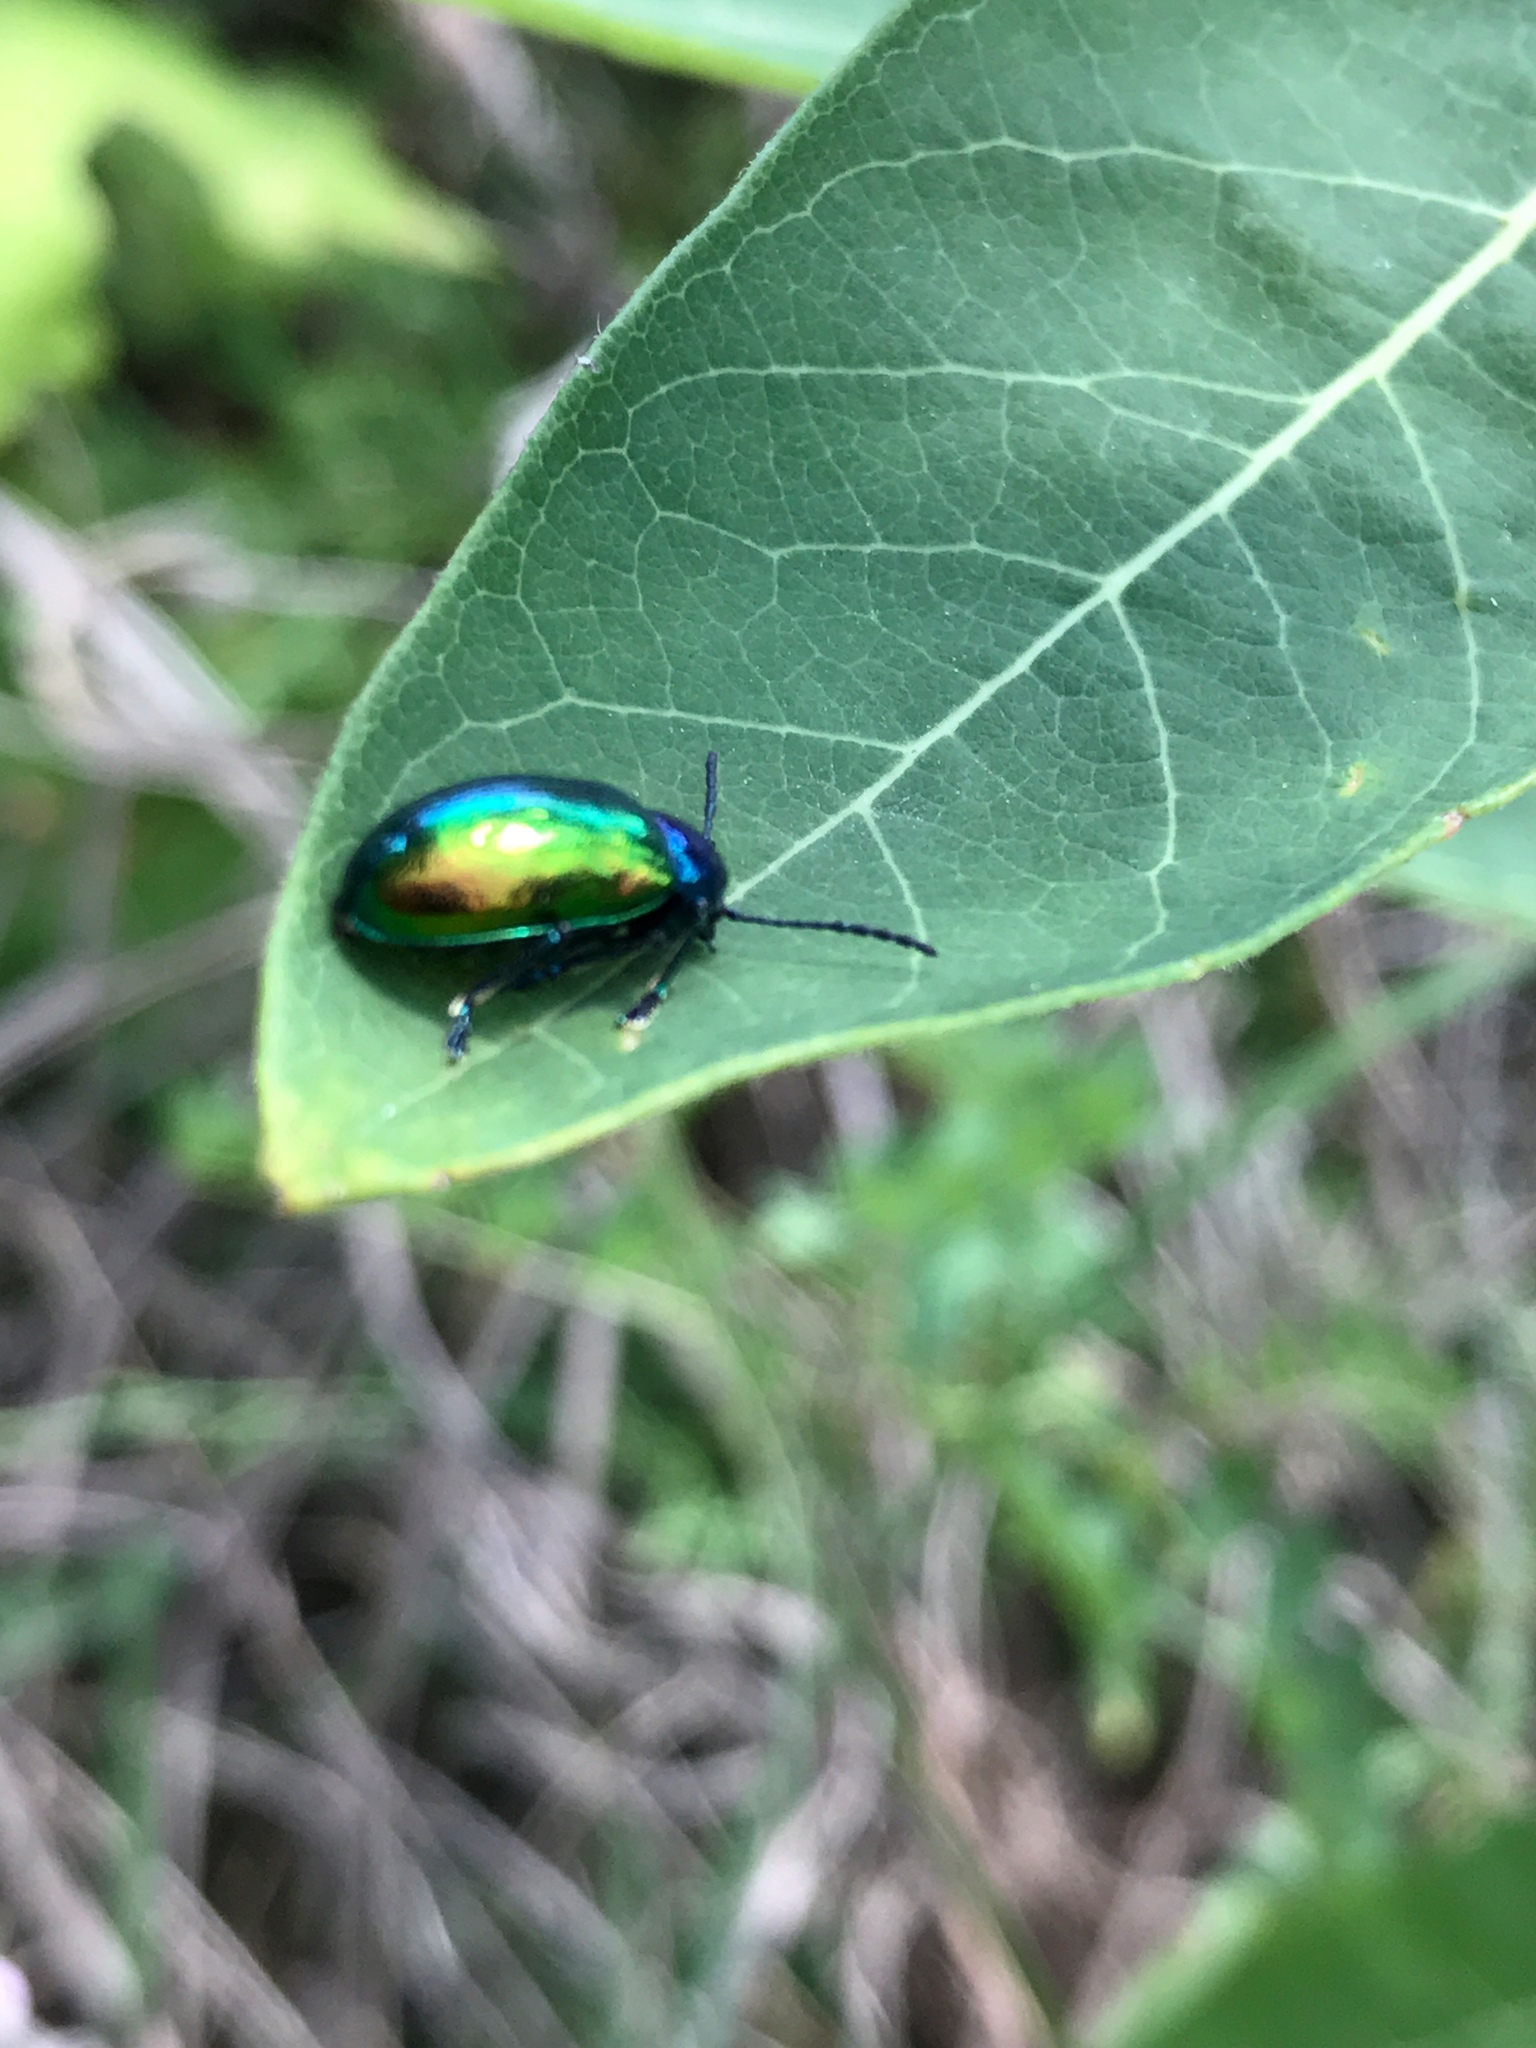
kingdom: Animalia
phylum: Arthropoda
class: Insecta
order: Coleoptera
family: Chrysomelidae
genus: Chrysochus
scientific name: Chrysochus auratus
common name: Dogbane leaf beetle
